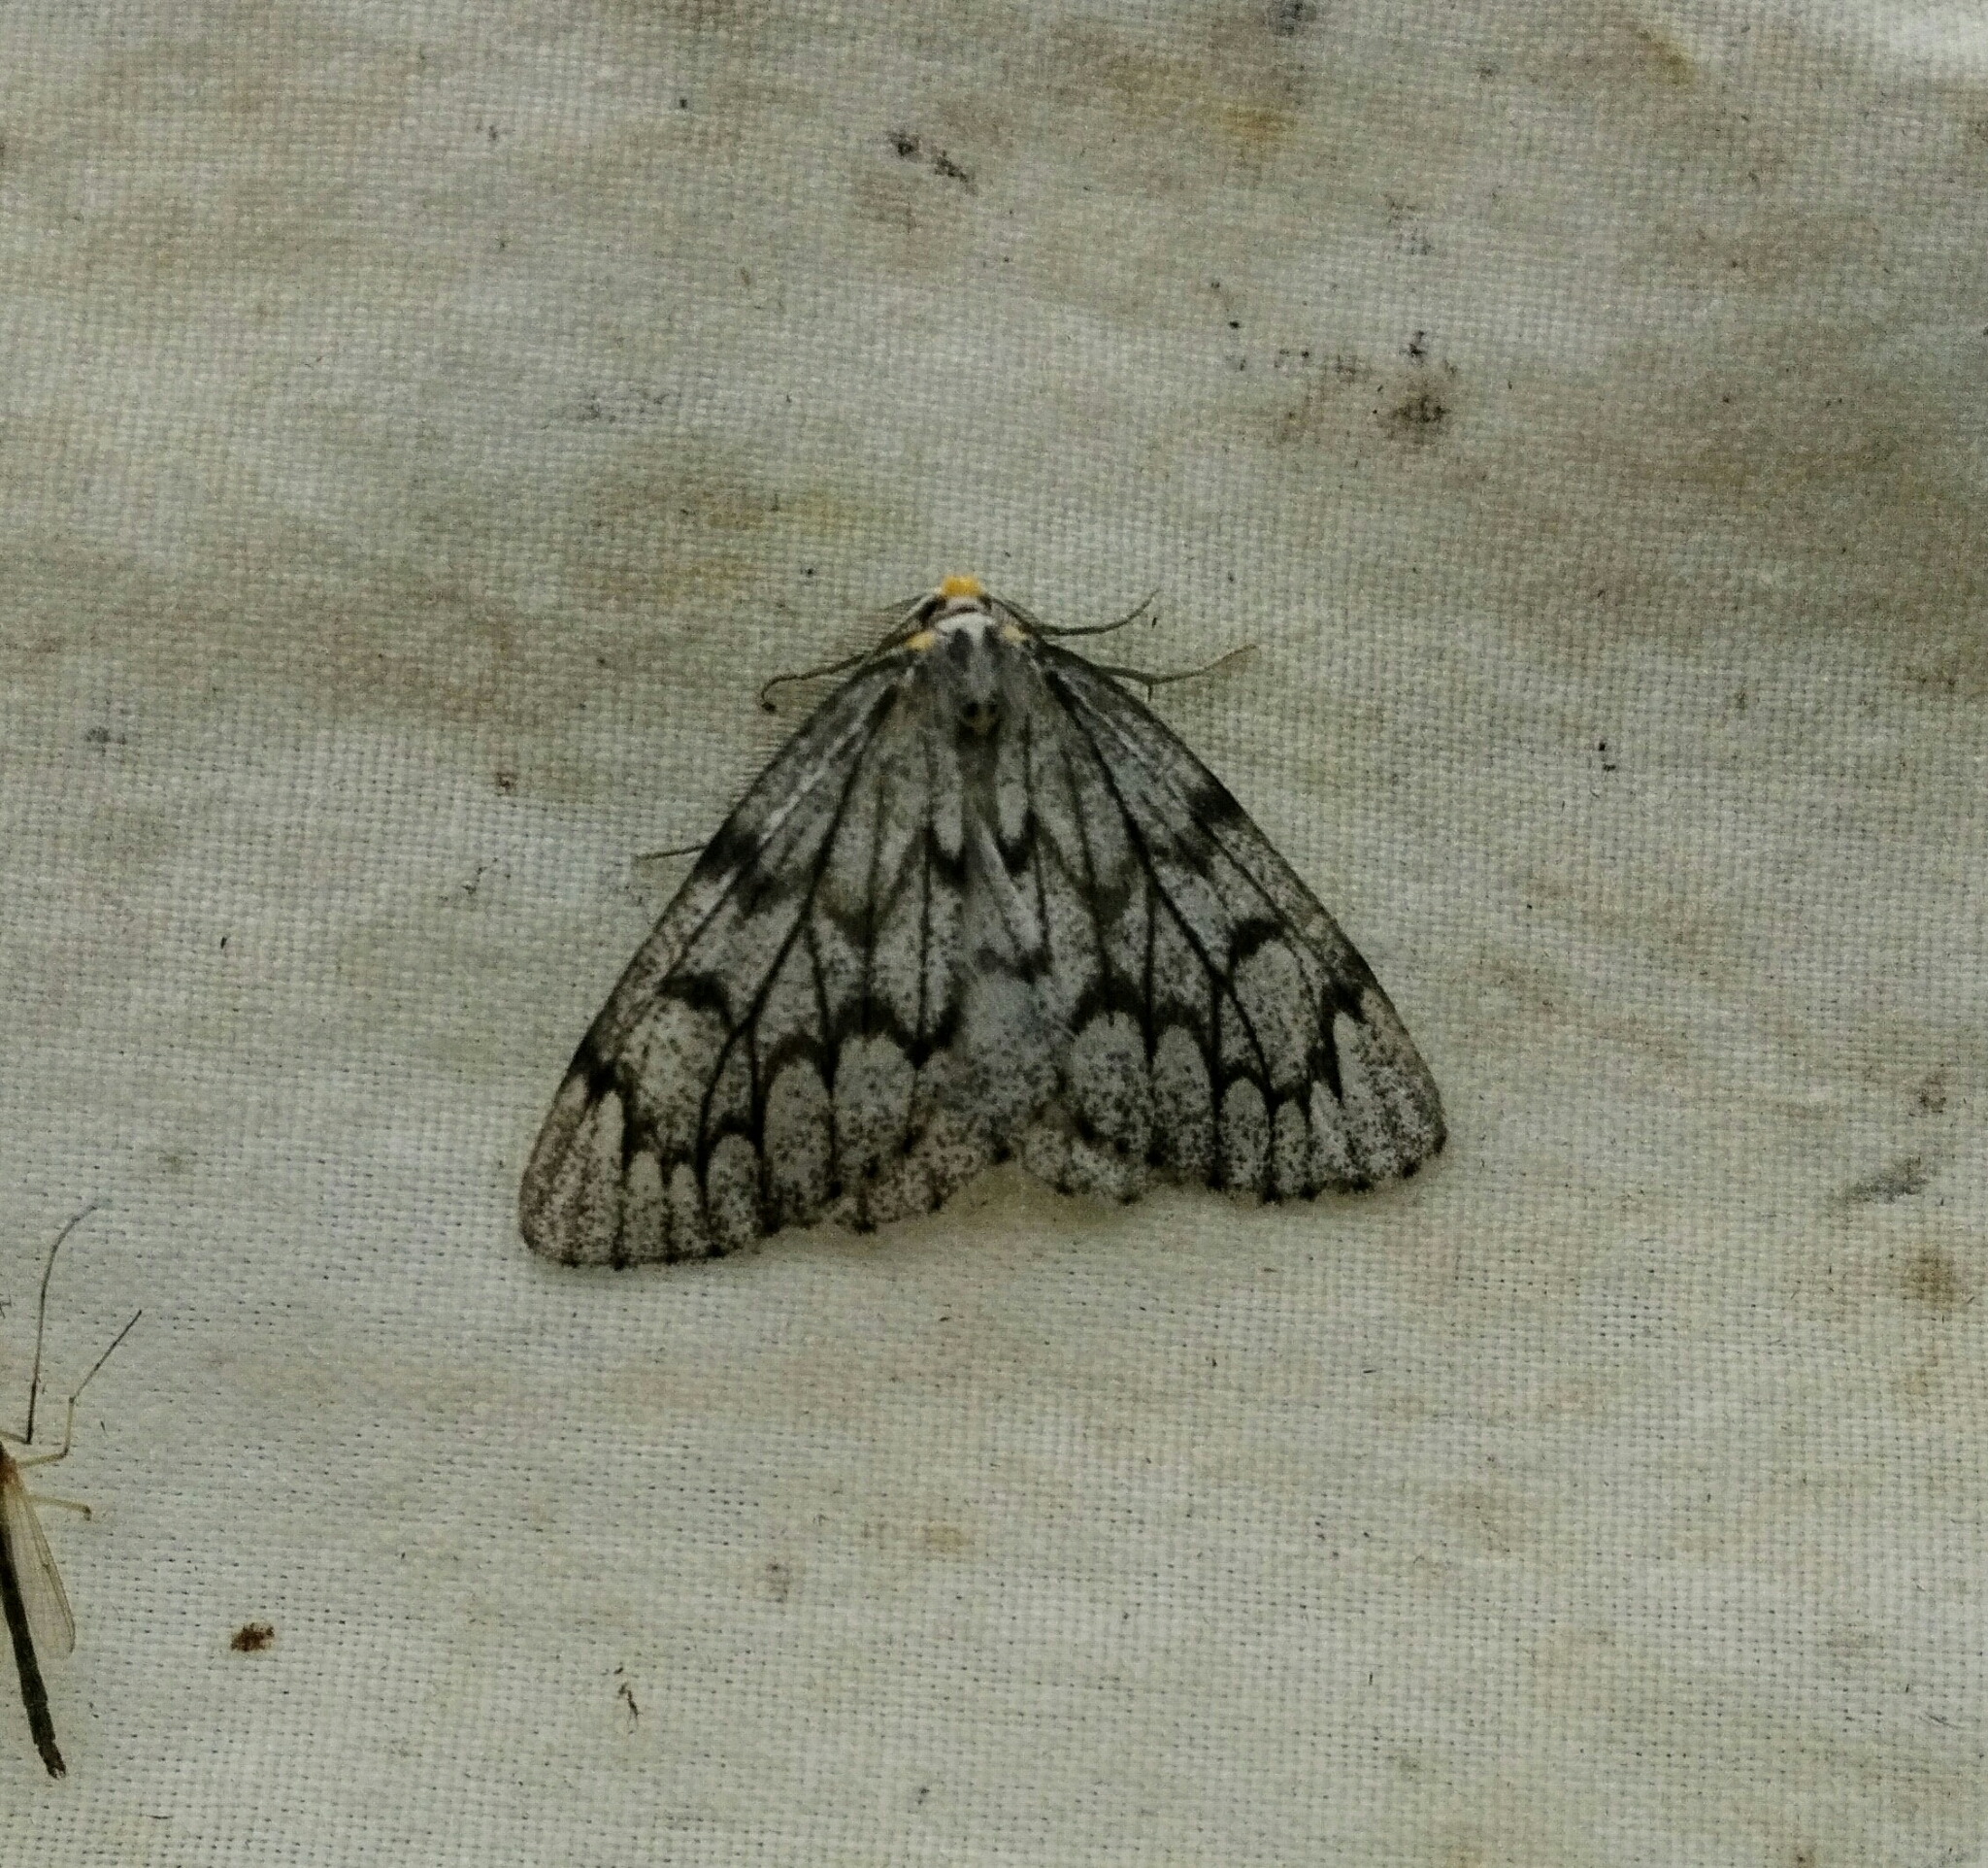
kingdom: Animalia
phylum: Arthropoda
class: Insecta
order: Lepidoptera
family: Geometridae
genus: Nepytia
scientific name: Nepytia canosaria
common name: False hemlock looper
